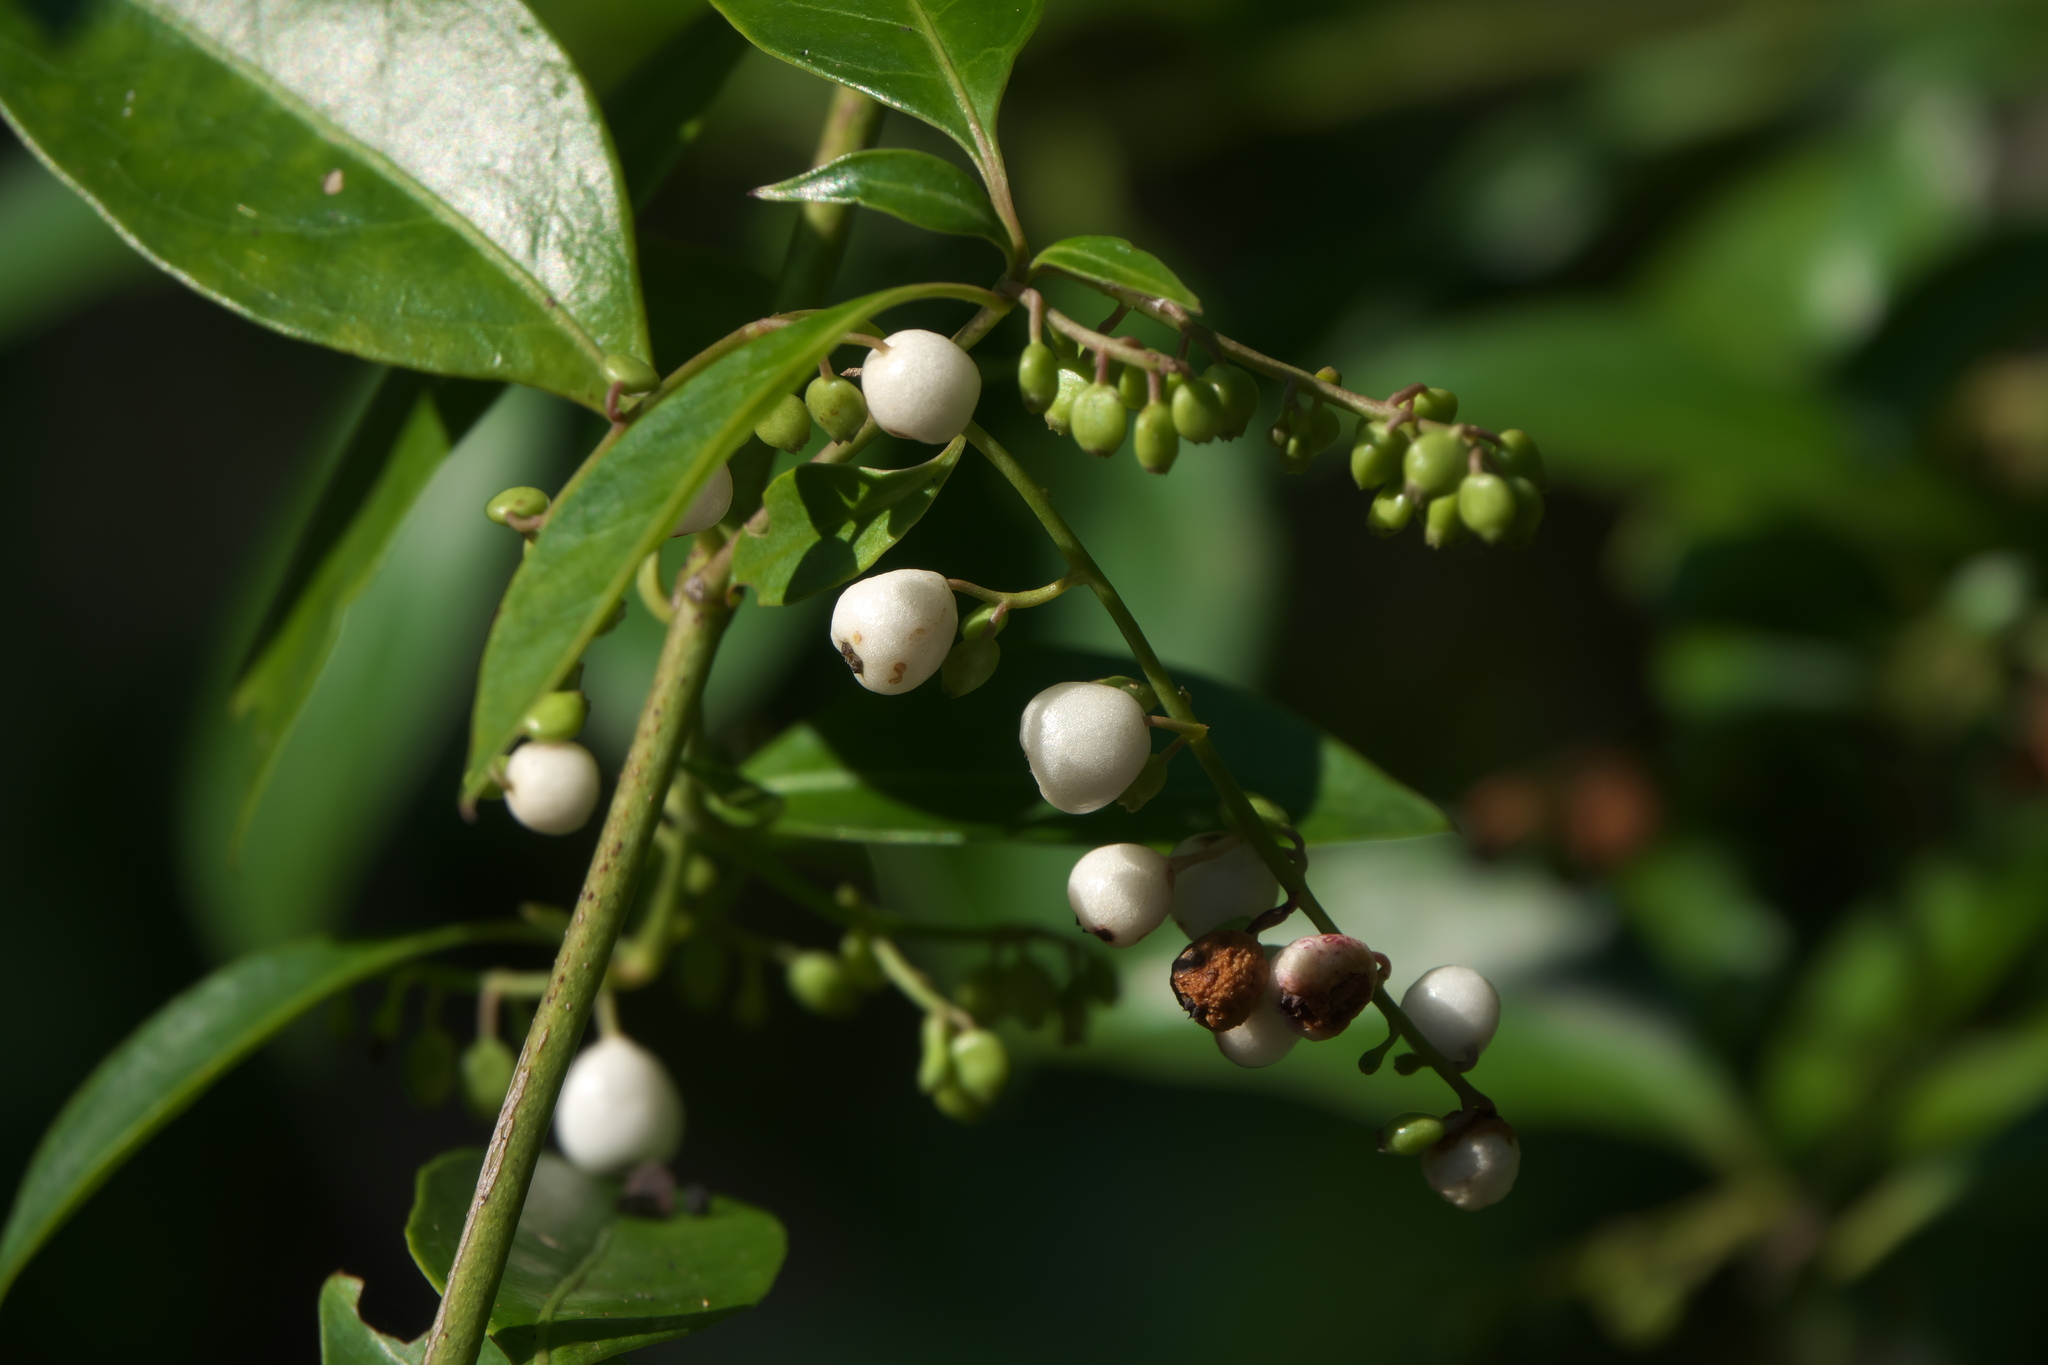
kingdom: Plantae
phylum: Tracheophyta
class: Magnoliopsida
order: Gentianales
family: Rubiaceae
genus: Chiococca
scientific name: Chiococca alba
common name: Snowberry
